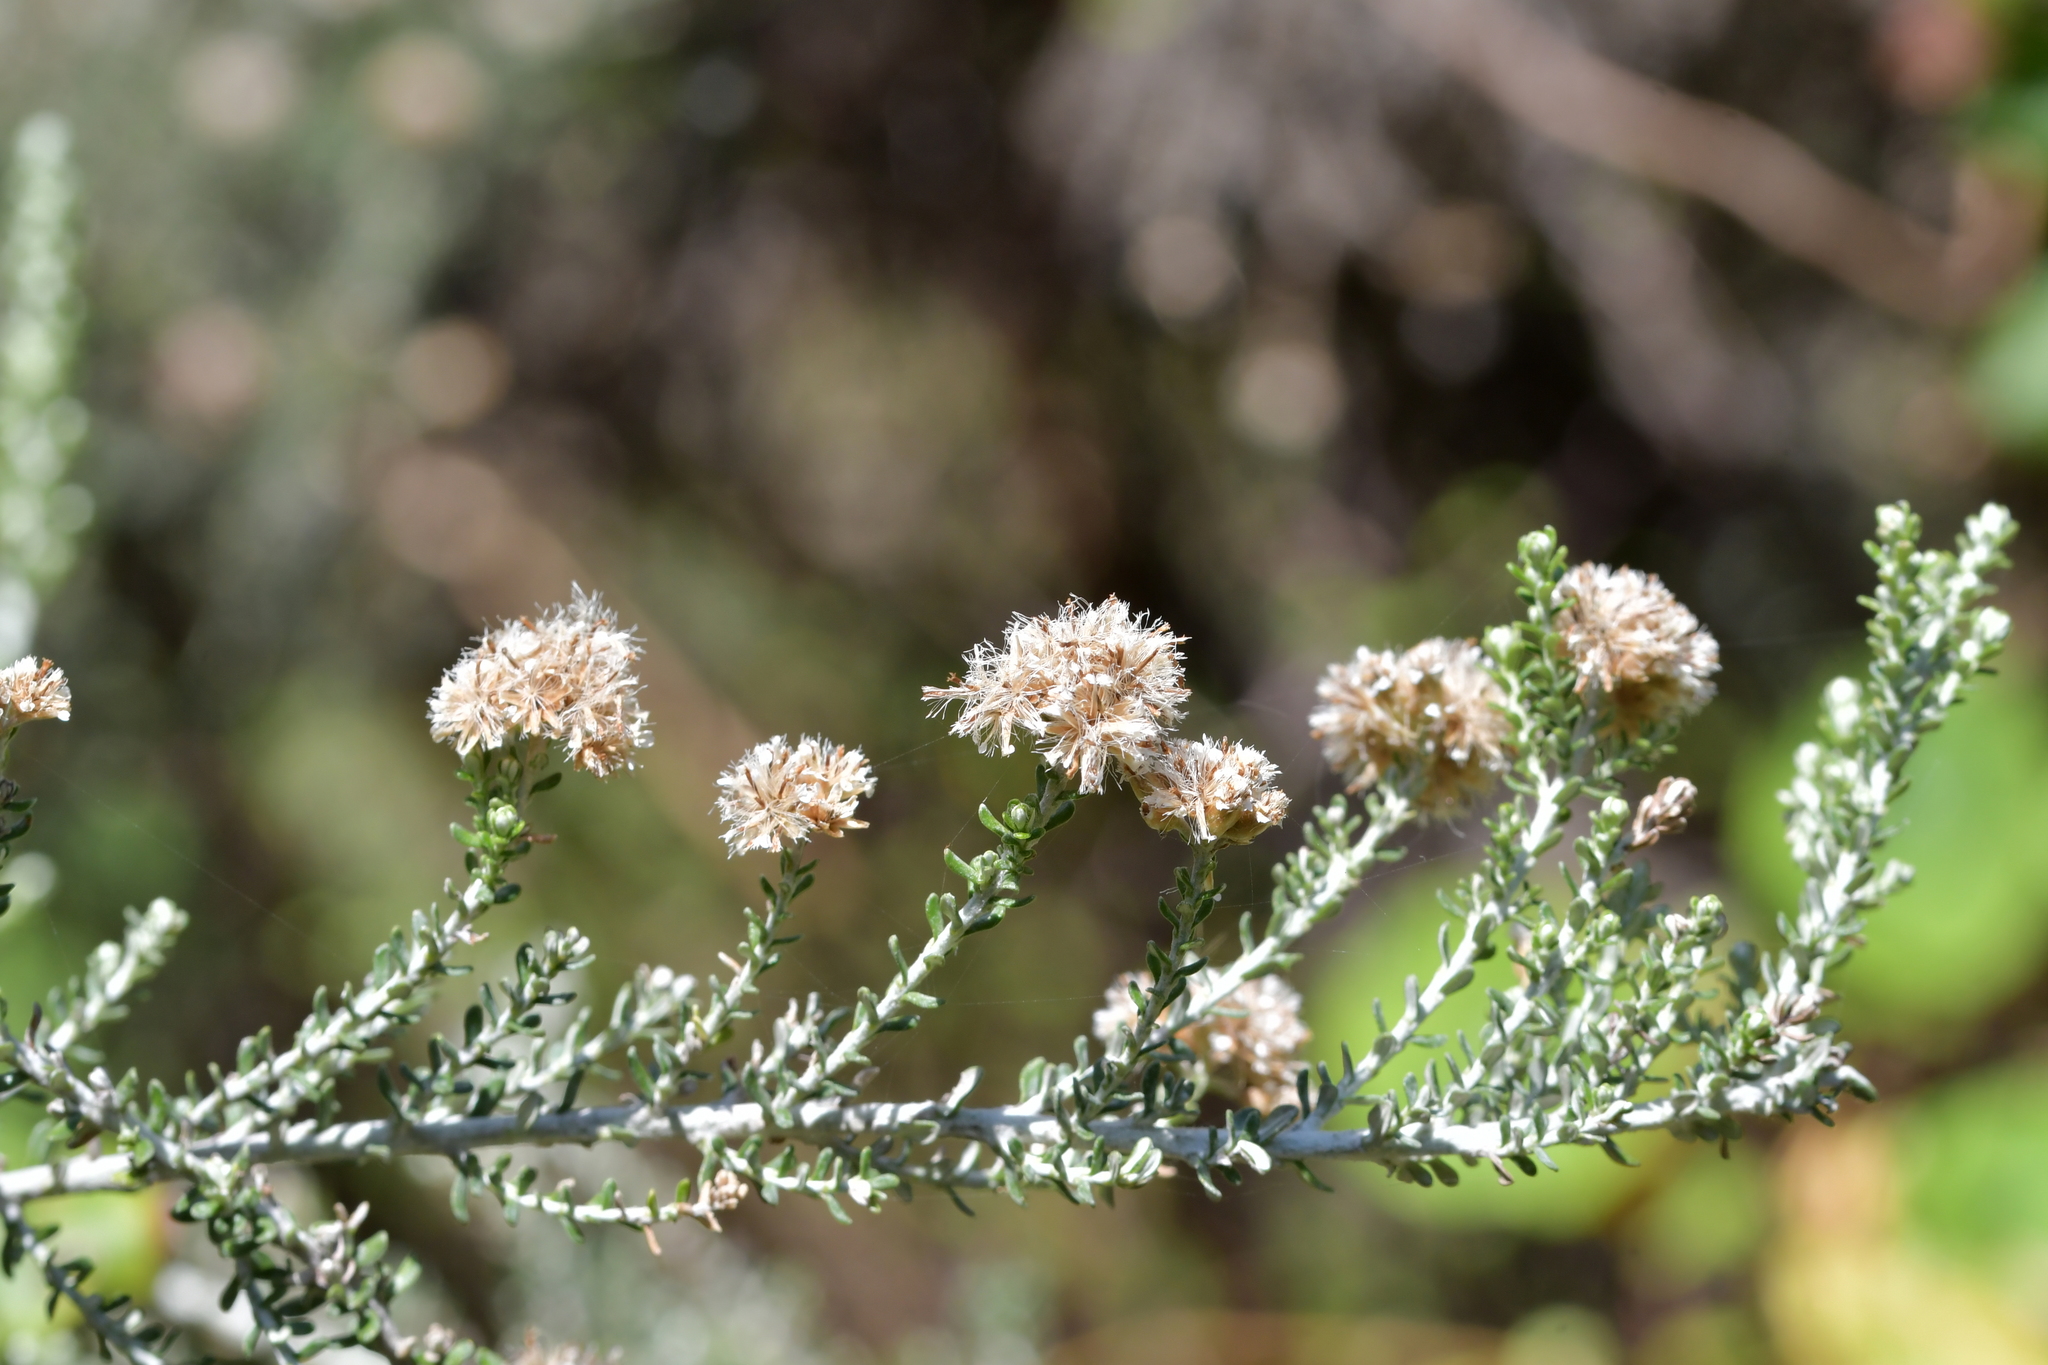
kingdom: Plantae
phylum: Tracheophyta
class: Magnoliopsida
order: Asterales
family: Asteraceae
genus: Ozothamnus
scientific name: Ozothamnus leptophyllus
